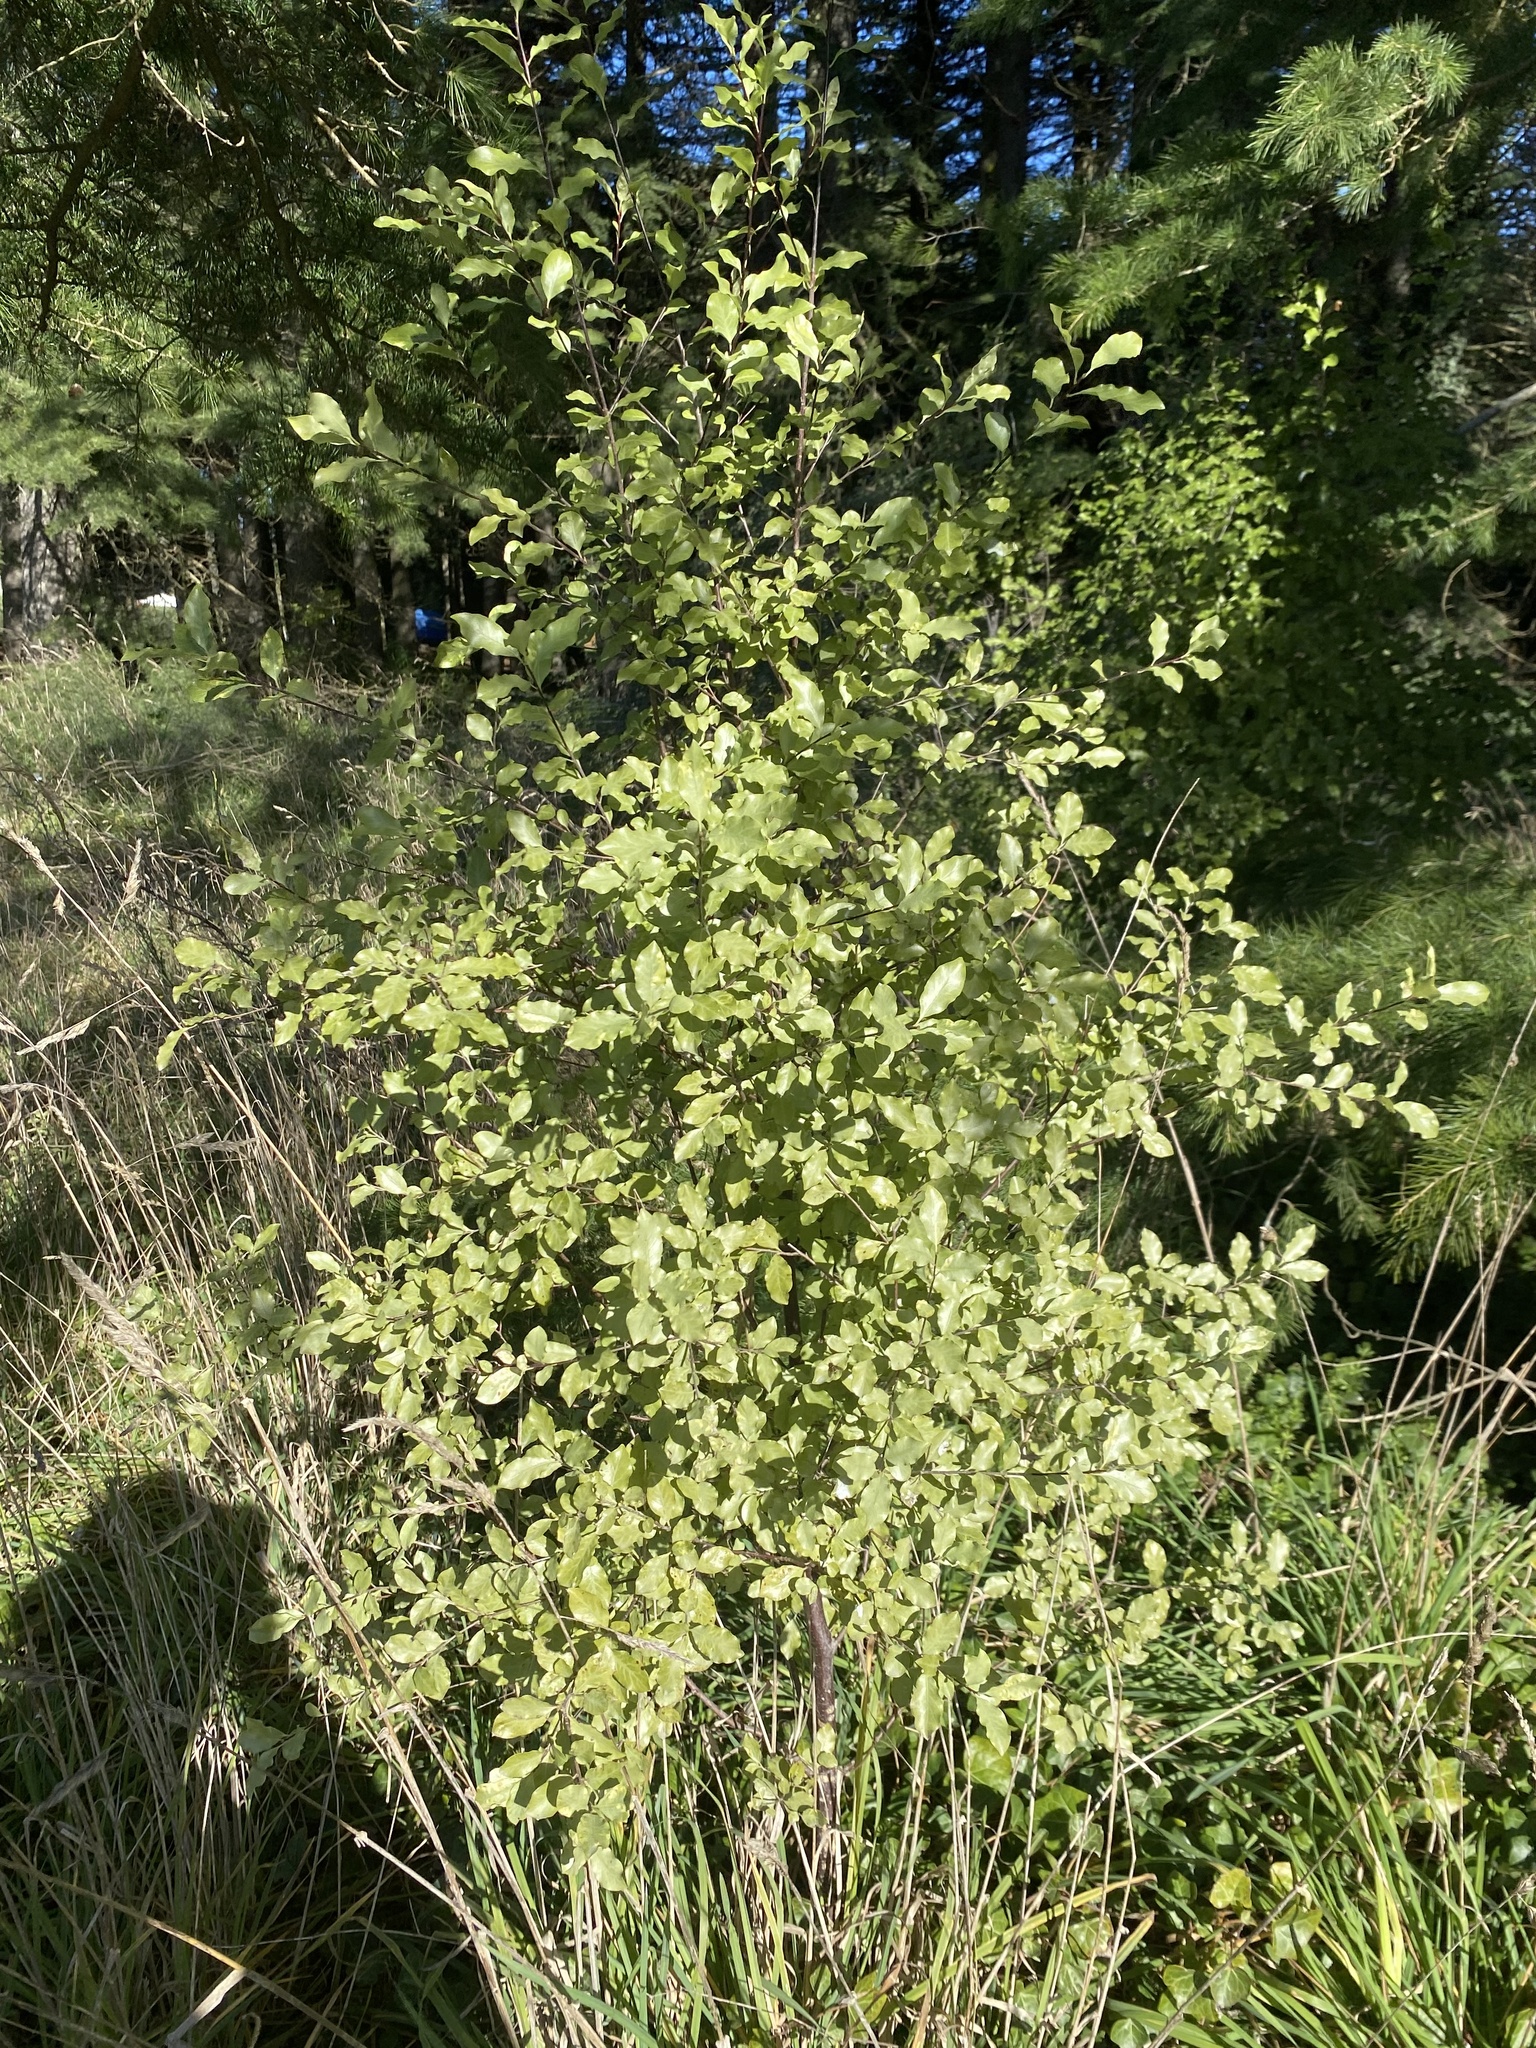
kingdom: Plantae
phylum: Tracheophyta
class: Magnoliopsida
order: Apiales
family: Pittosporaceae
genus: Pittosporum
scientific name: Pittosporum tenuifolium
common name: Kohuhu
